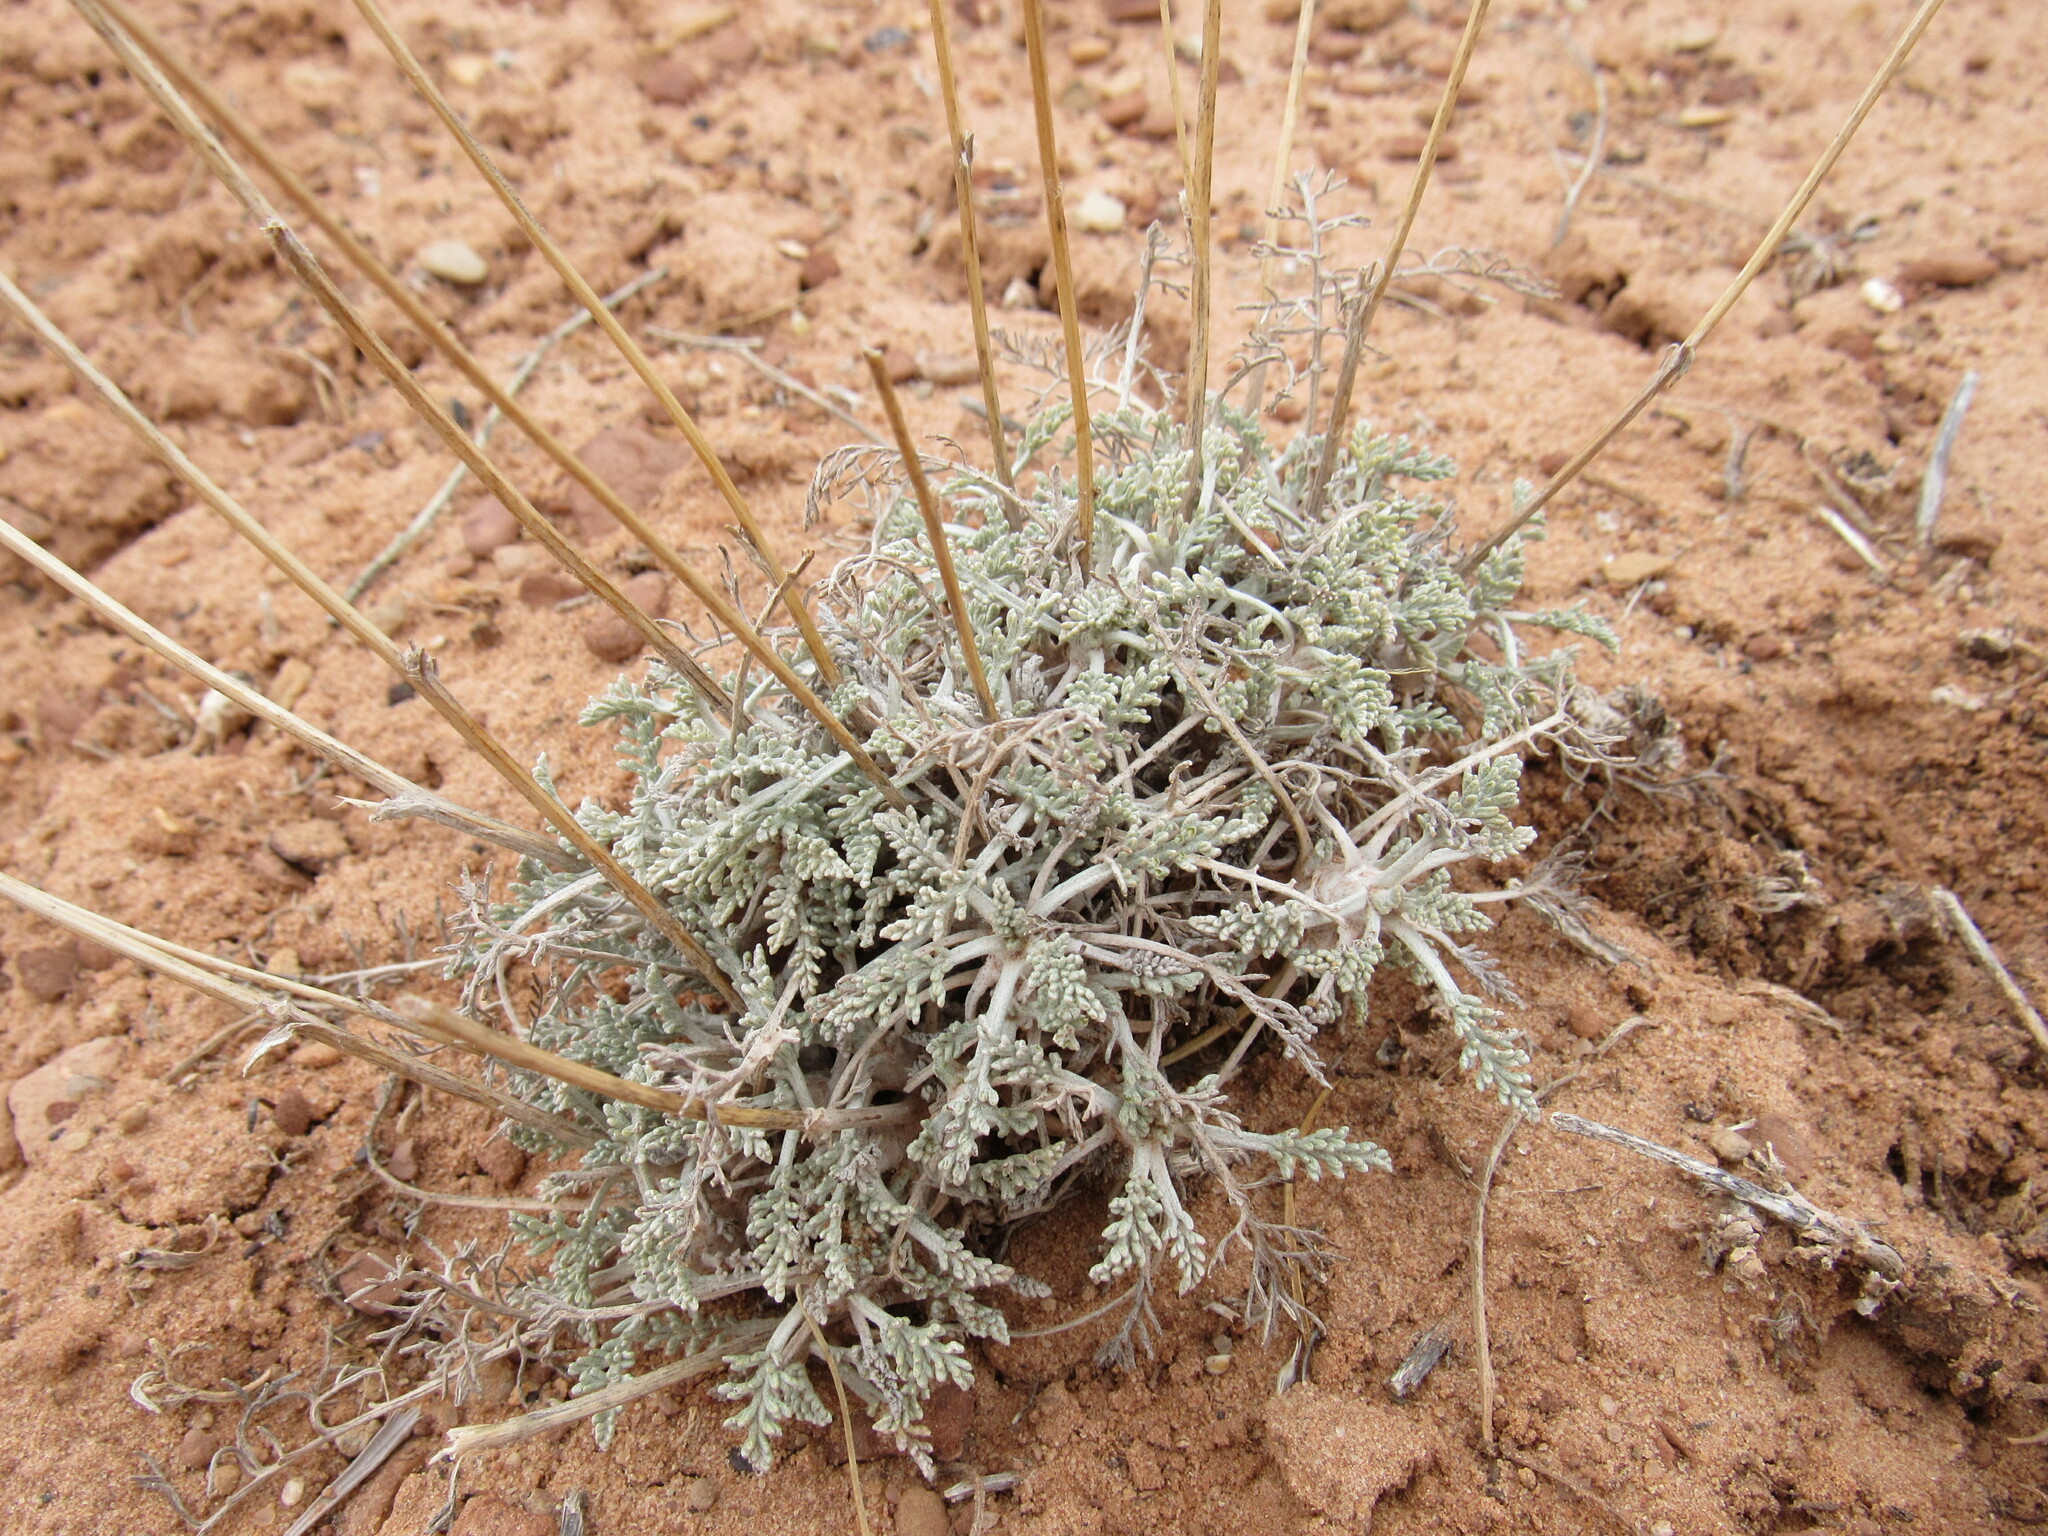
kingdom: Plantae
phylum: Tracheophyta
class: Magnoliopsida
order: Asterales
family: Asteraceae
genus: Hymenopappus
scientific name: Hymenopappus filifolius
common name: Columbia cutleaf
